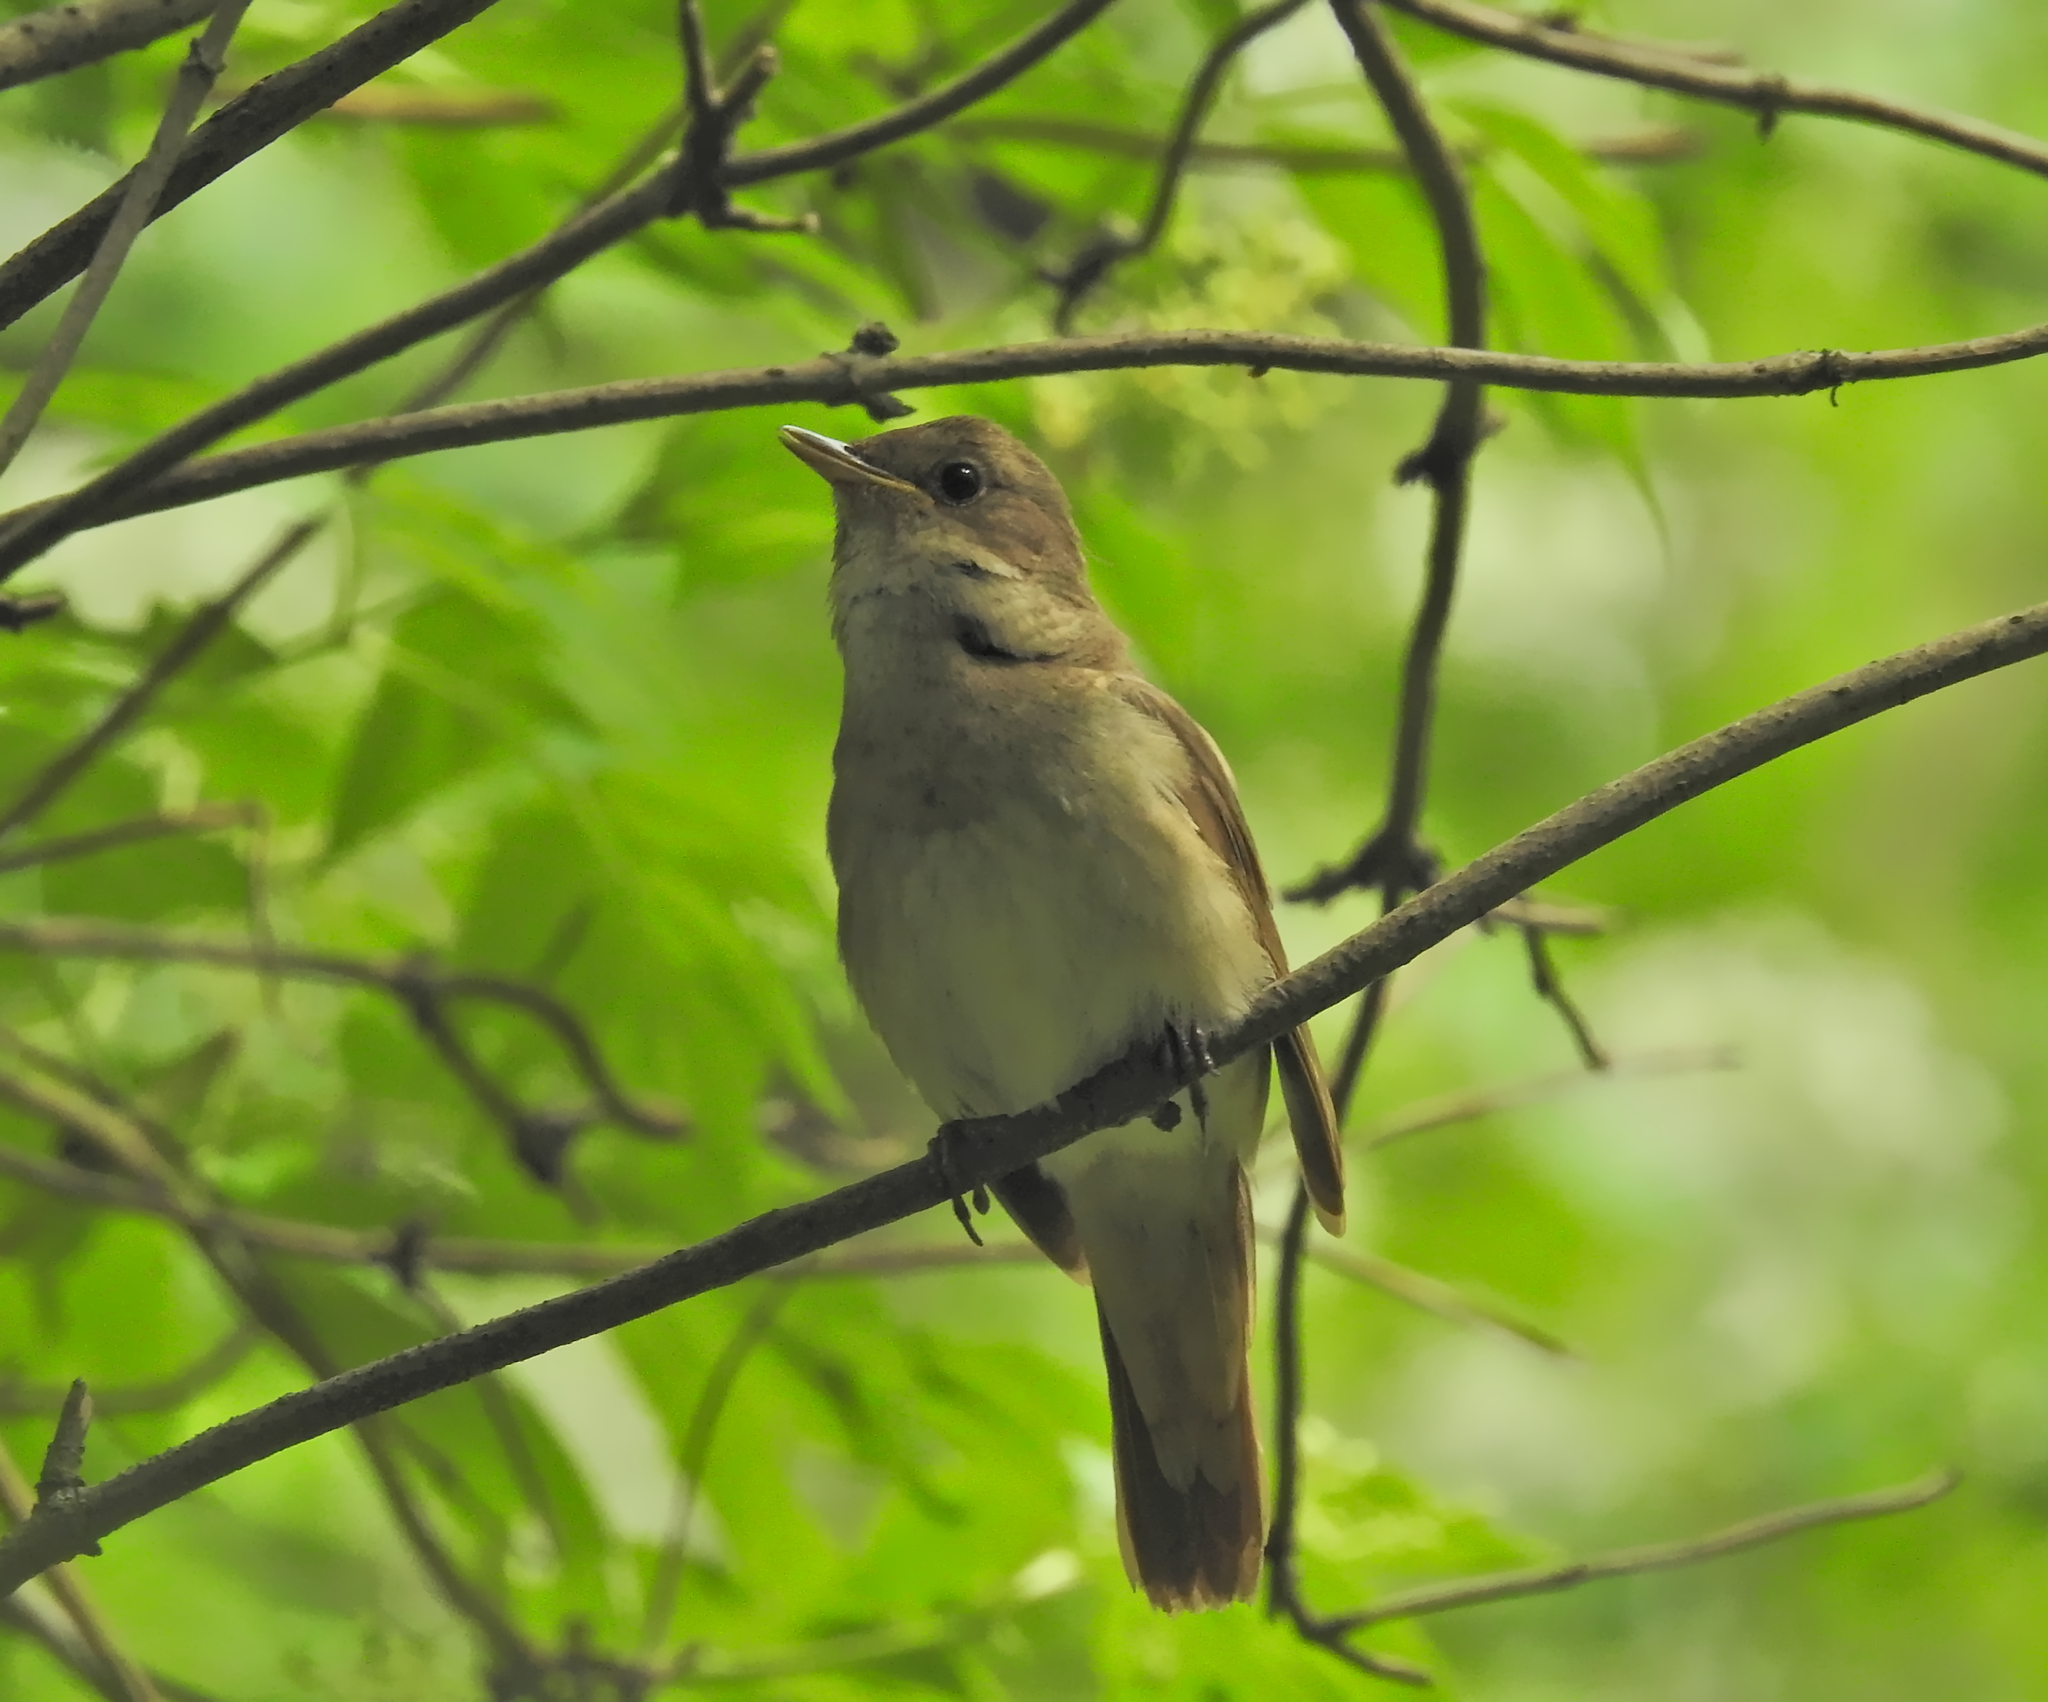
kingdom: Animalia
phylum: Chordata
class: Aves
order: Passeriformes
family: Muscicapidae
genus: Luscinia
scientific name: Luscinia luscinia
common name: Thrush nightingale
